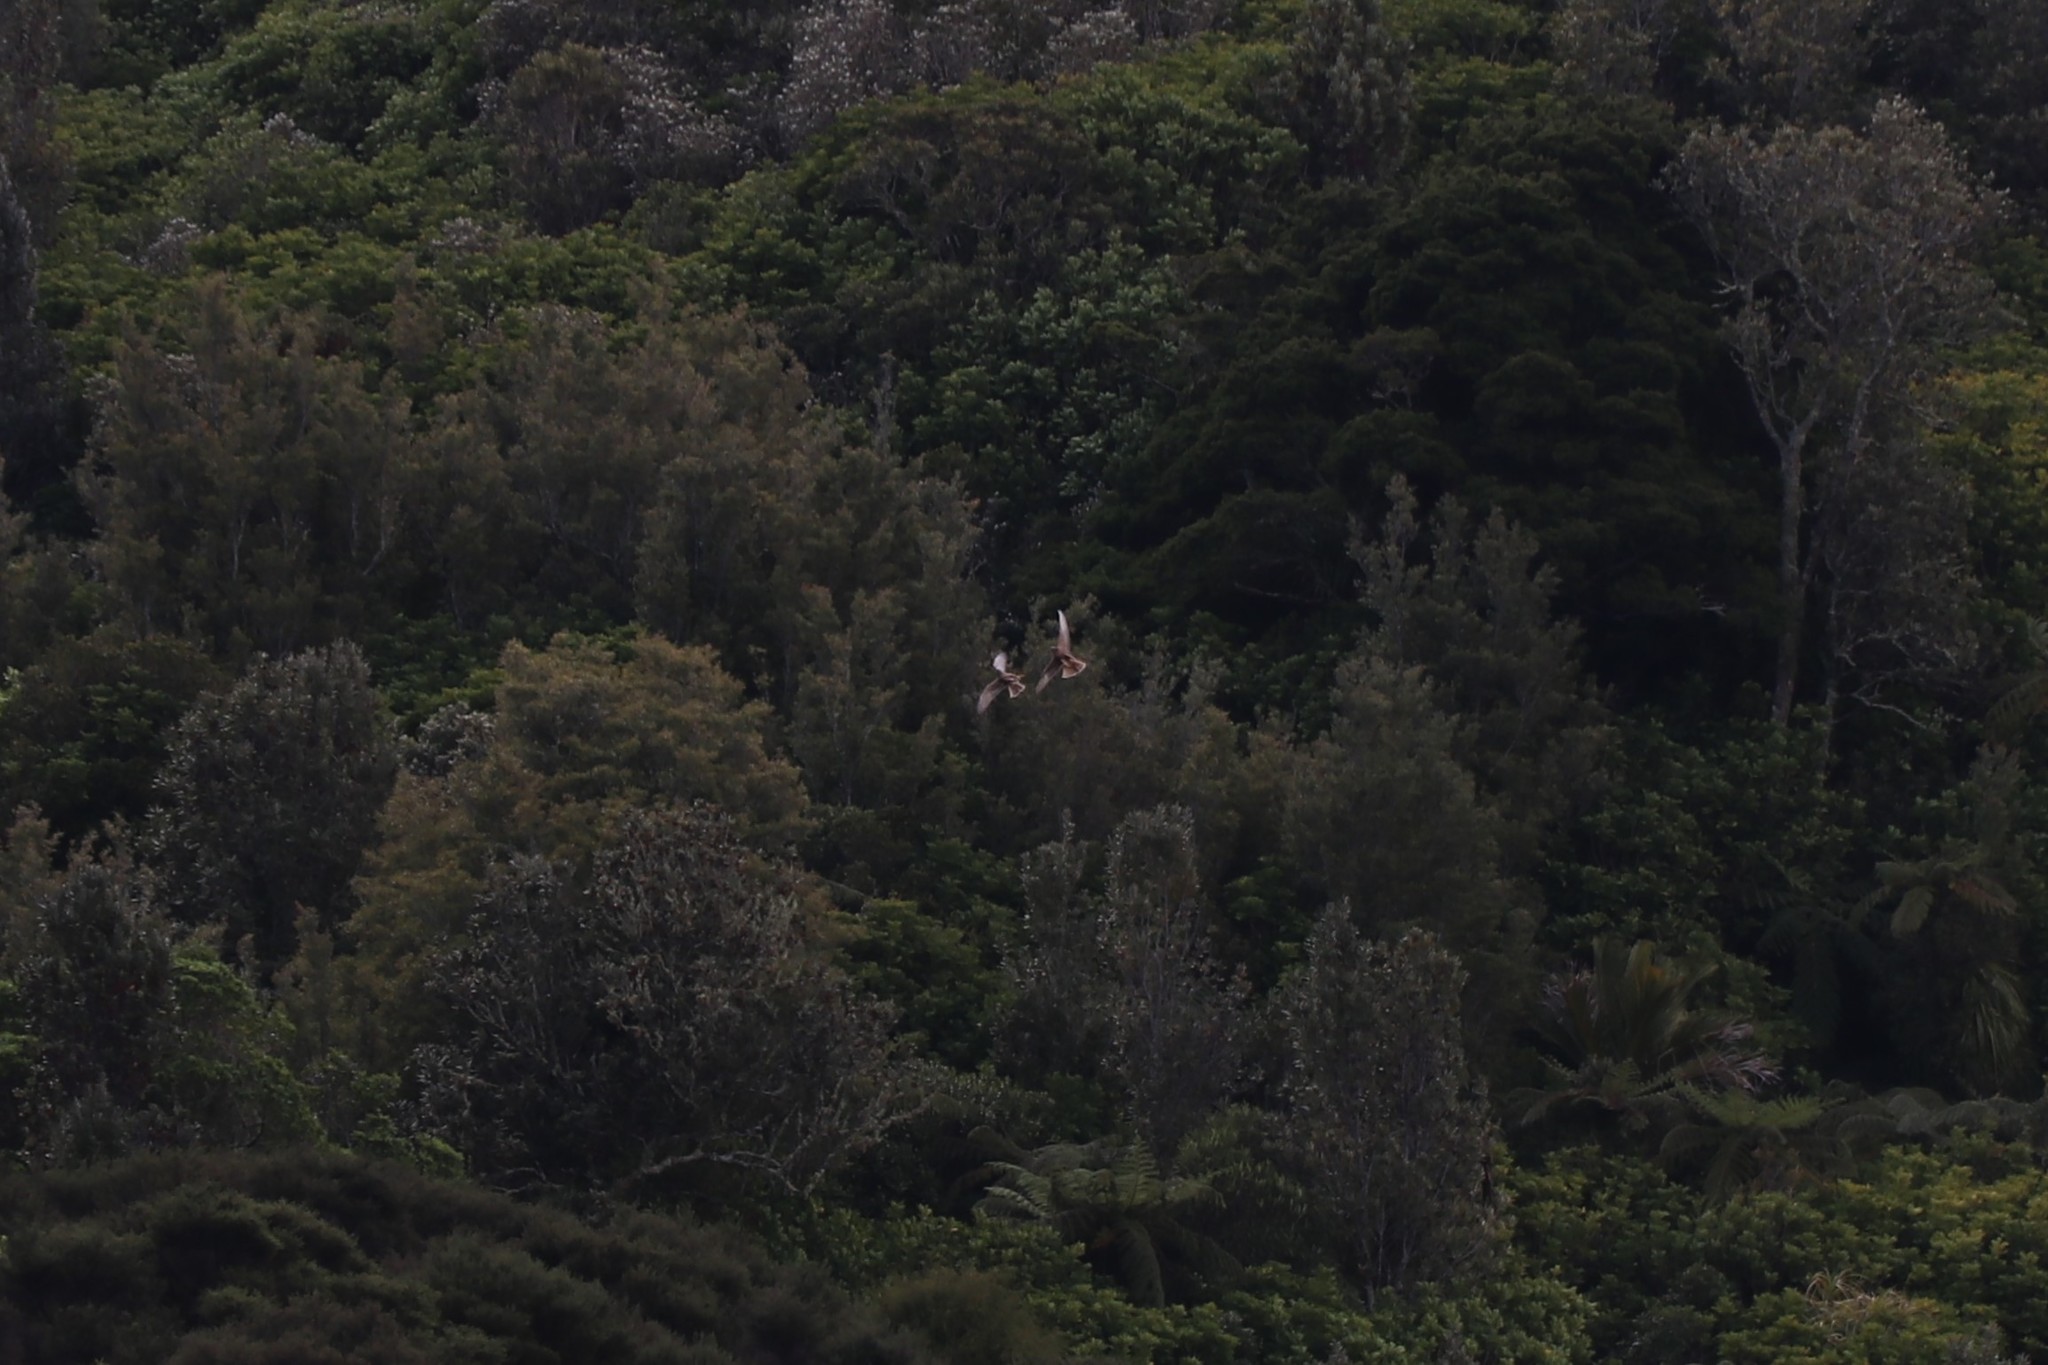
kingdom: Animalia
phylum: Chordata
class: Aves
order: Accipitriformes
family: Accipitridae
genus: Circus
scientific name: Circus approximans
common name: Swamp harrier
